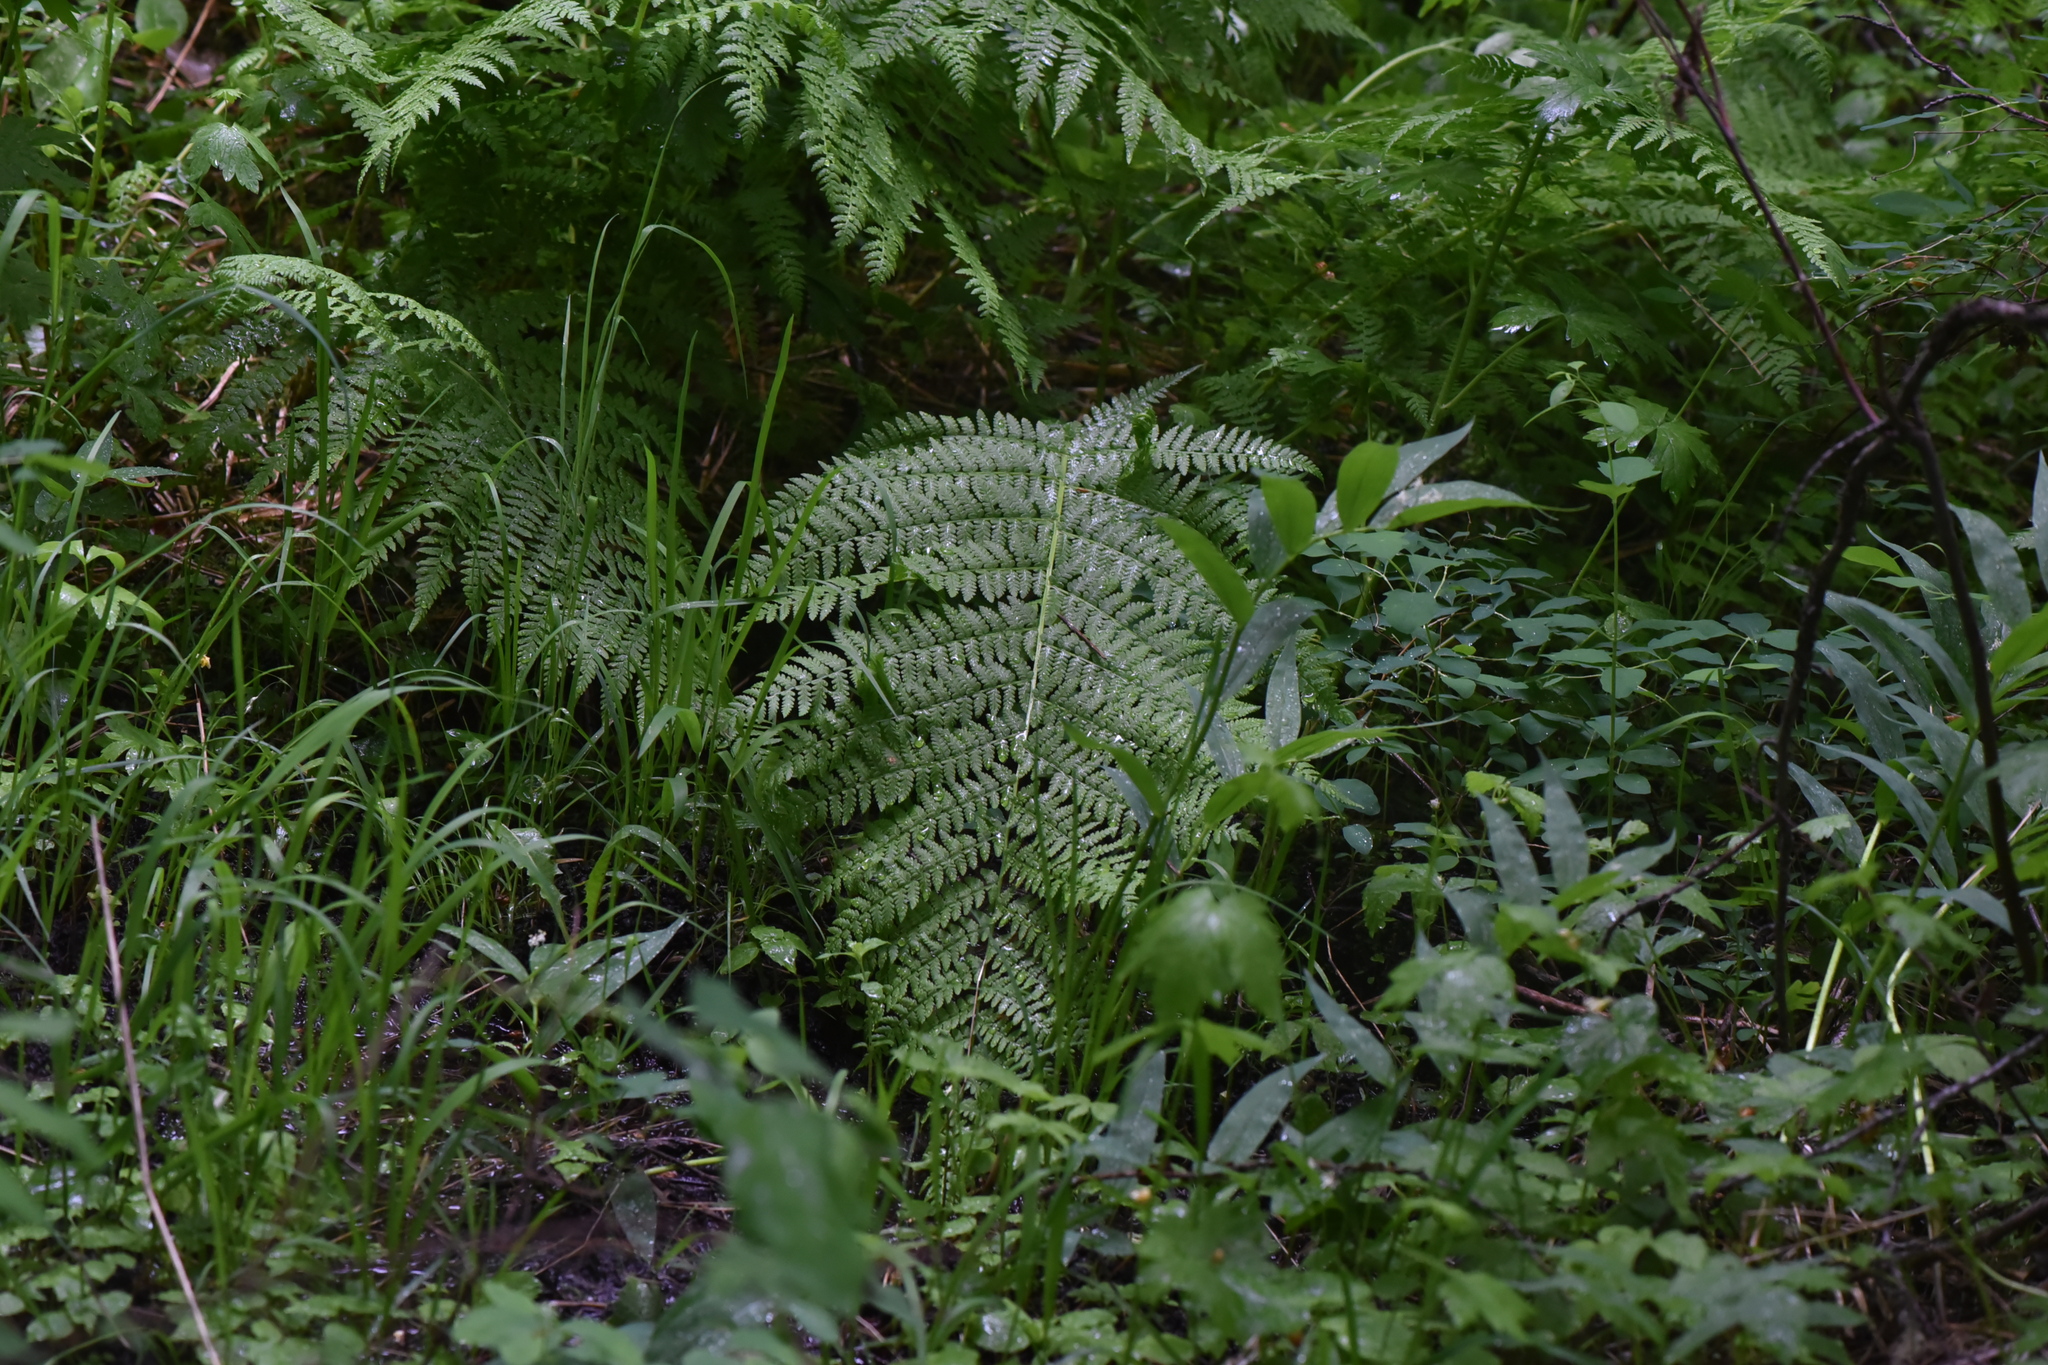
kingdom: Plantae
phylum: Tracheophyta
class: Polypodiopsida
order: Polypodiales
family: Athyriaceae
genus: Athyrium
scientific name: Athyrium filix-femina
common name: Lady fern
